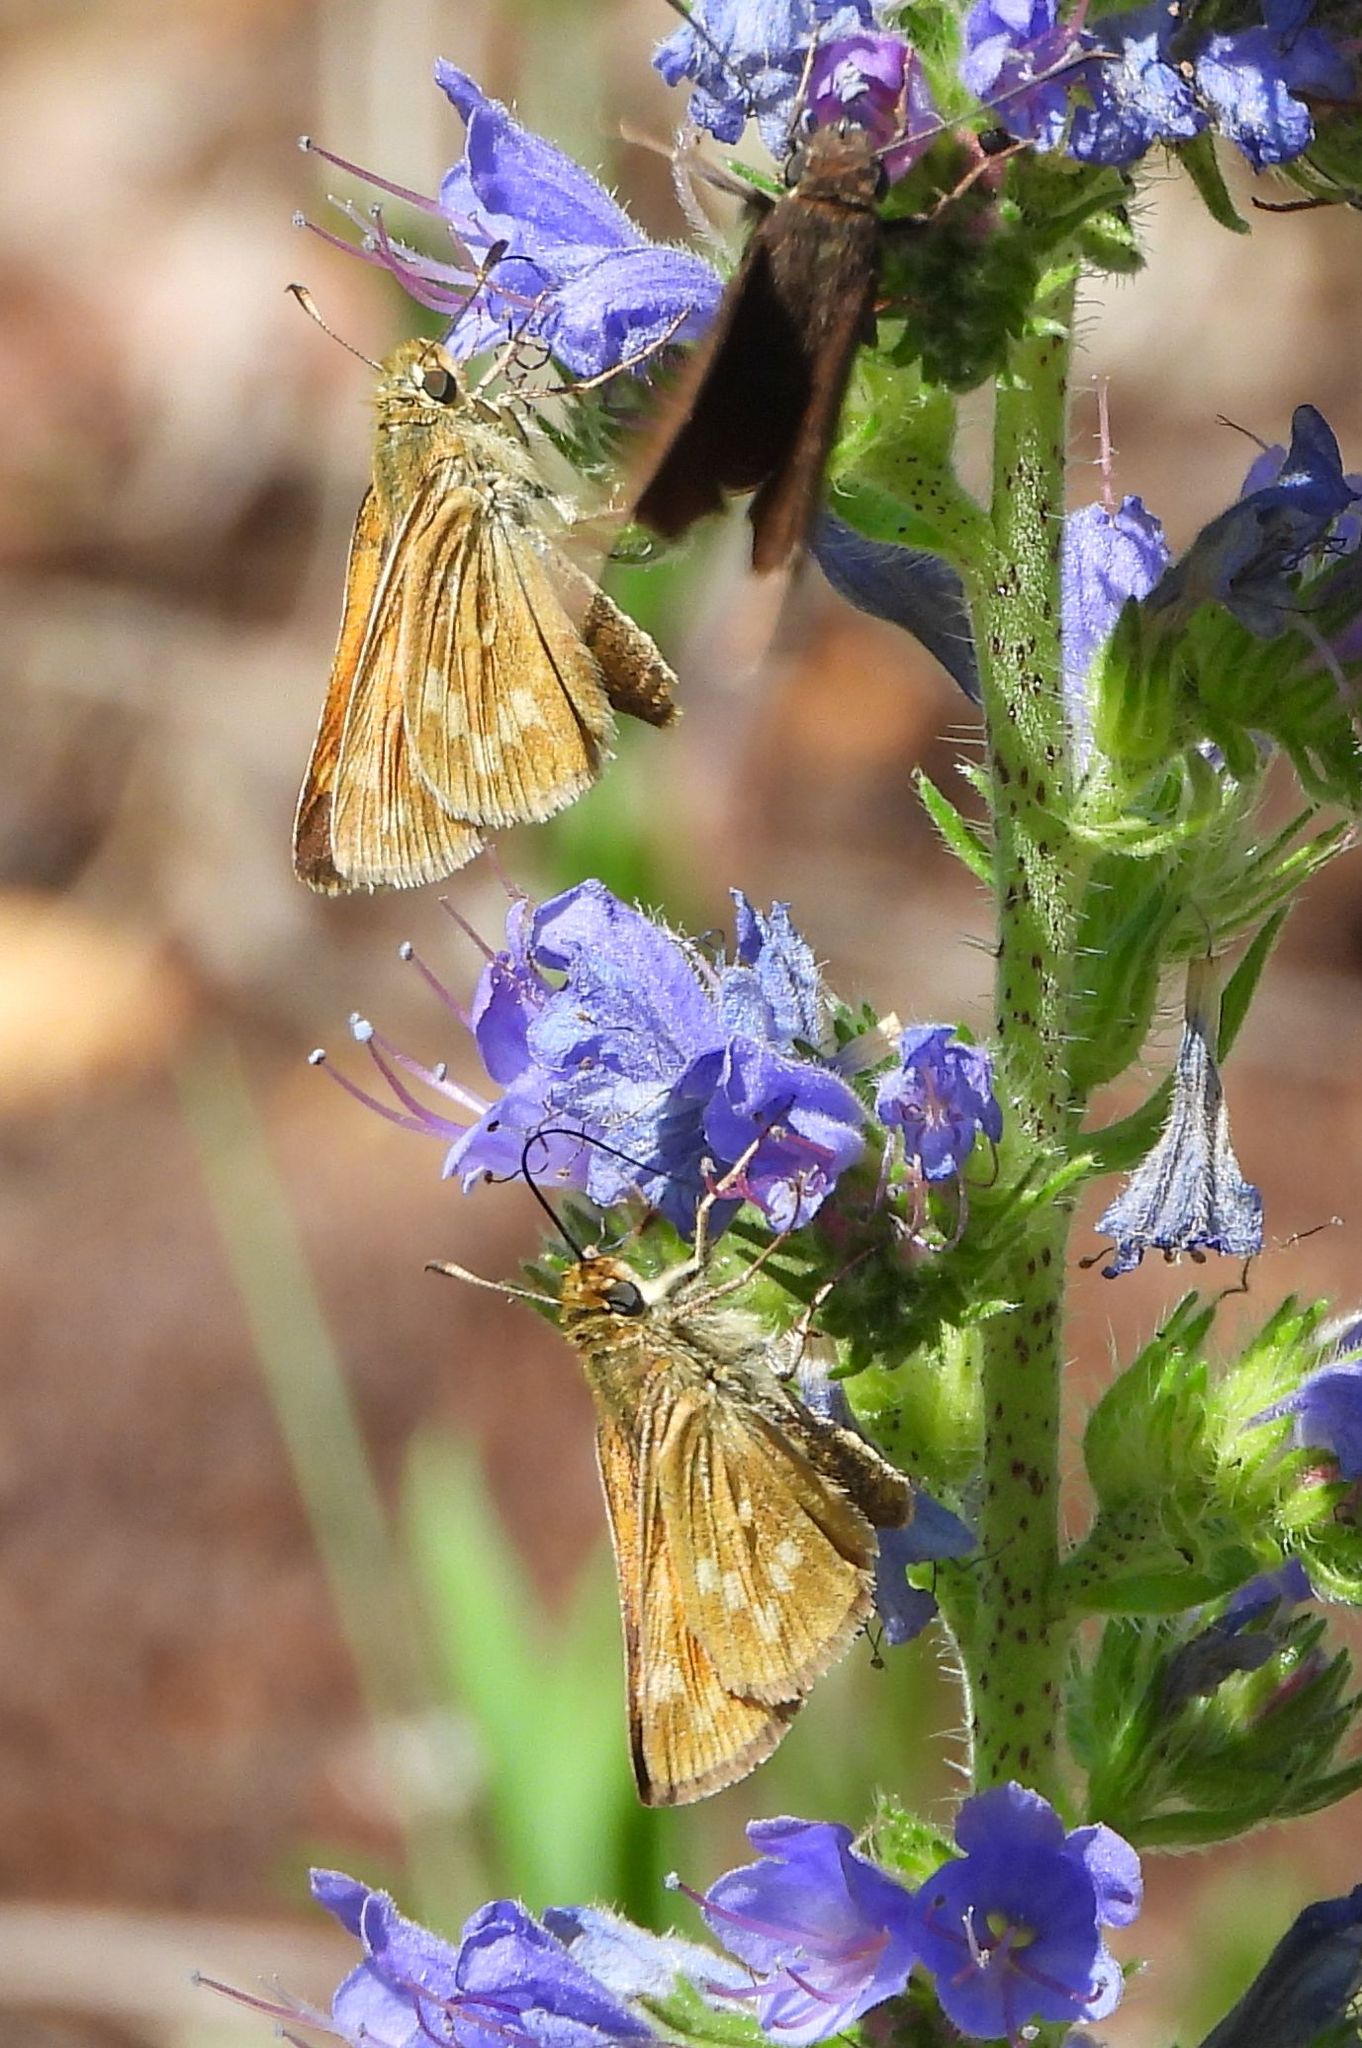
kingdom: Animalia
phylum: Arthropoda
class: Insecta
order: Lepidoptera
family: Hesperiidae
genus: Hesperia
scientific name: Hesperia sassacus
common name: Indian skipper
